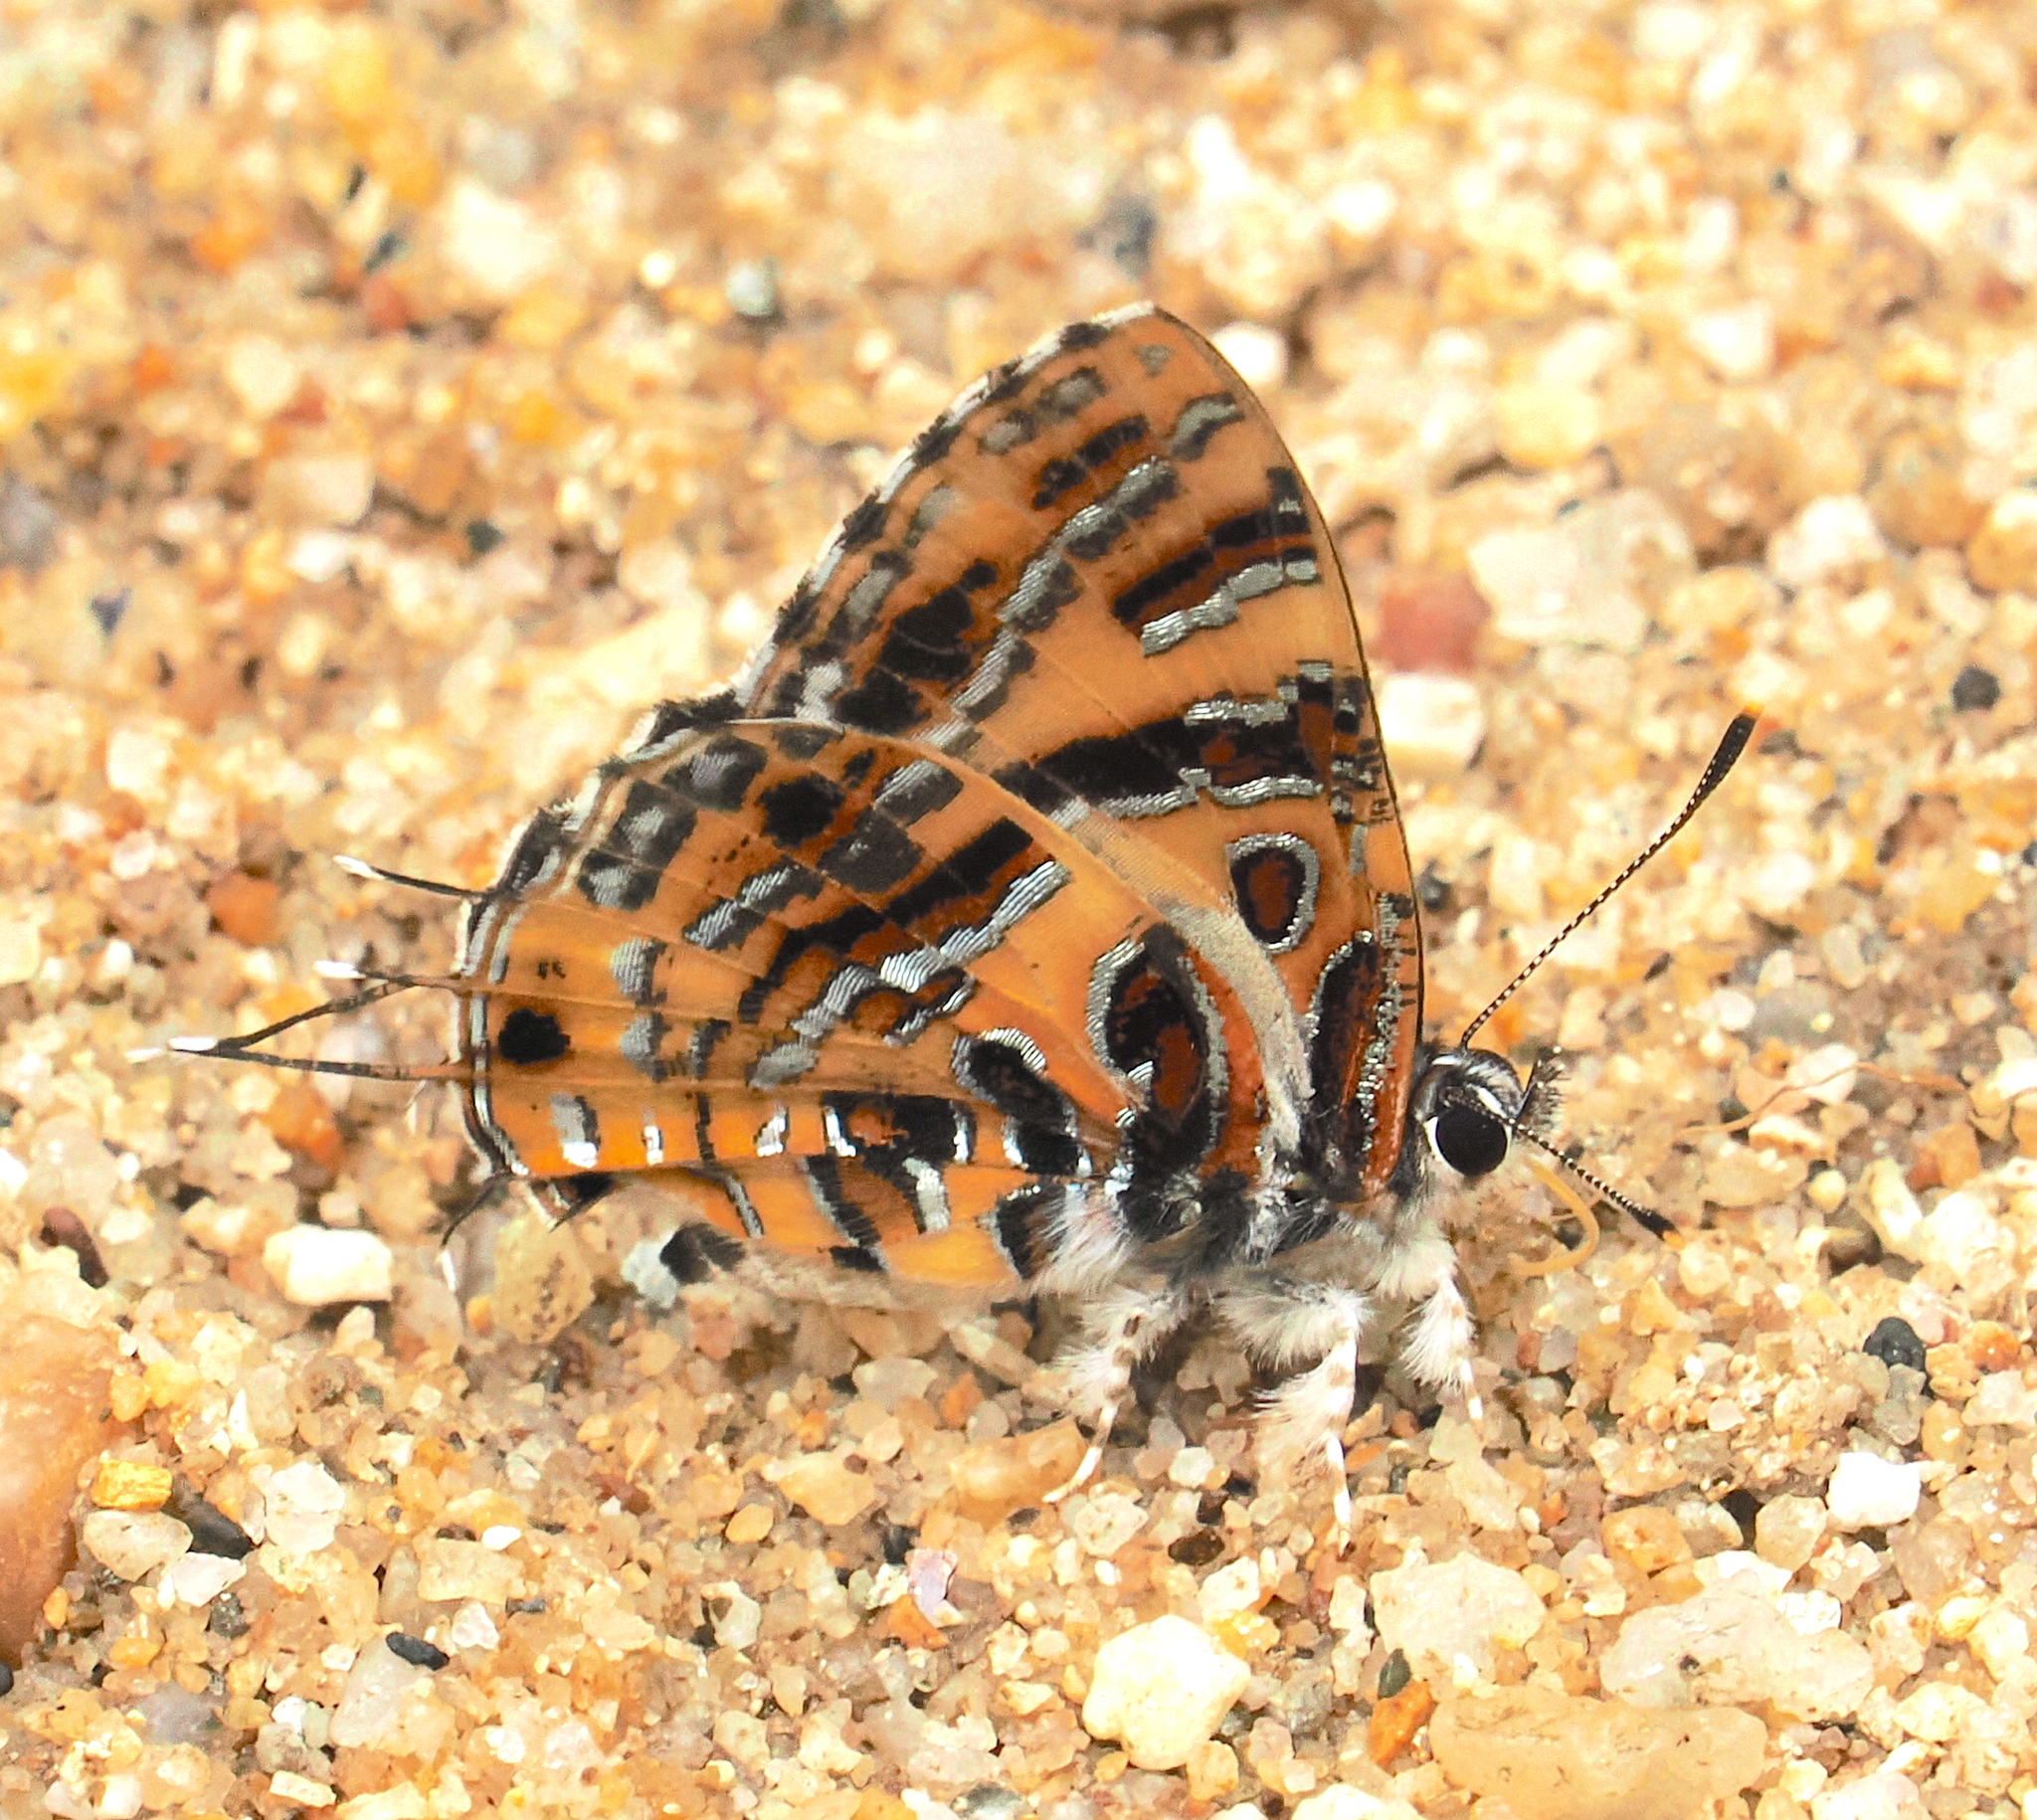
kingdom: Animalia
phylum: Arthropoda
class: Insecta
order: Lepidoptera
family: Lycaenidae
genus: Catapaecilma
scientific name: Catapaecilma subochrea
